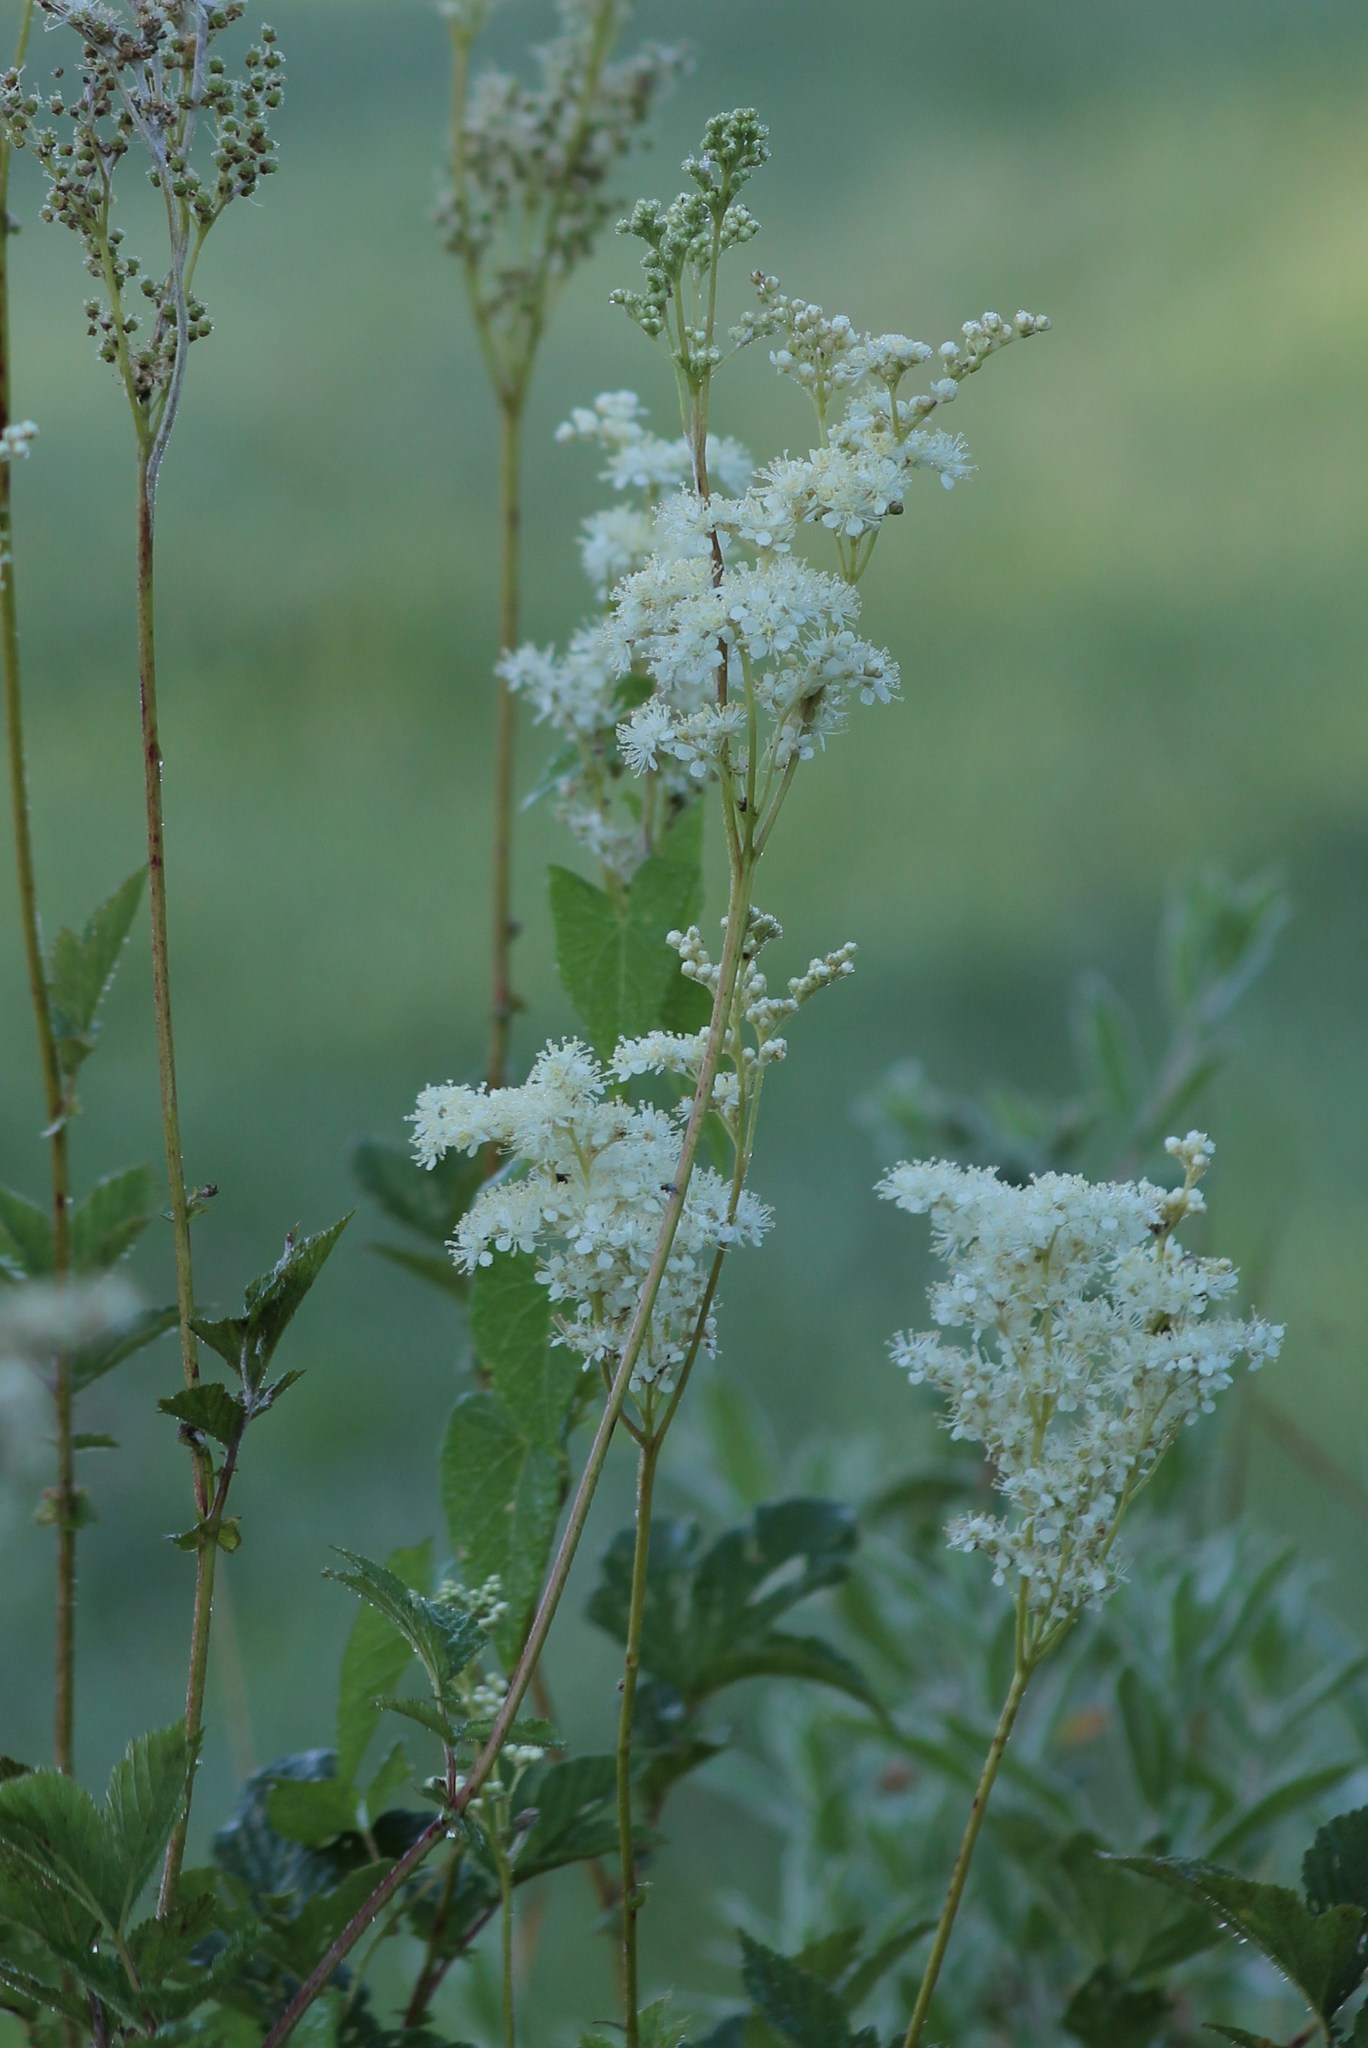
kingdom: Plantae
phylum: Tracheophyta
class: Magnoliopsida
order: Rosales
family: Rosaceae
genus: Filipendula
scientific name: Filipendula ulmaria
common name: Meadowsweet
